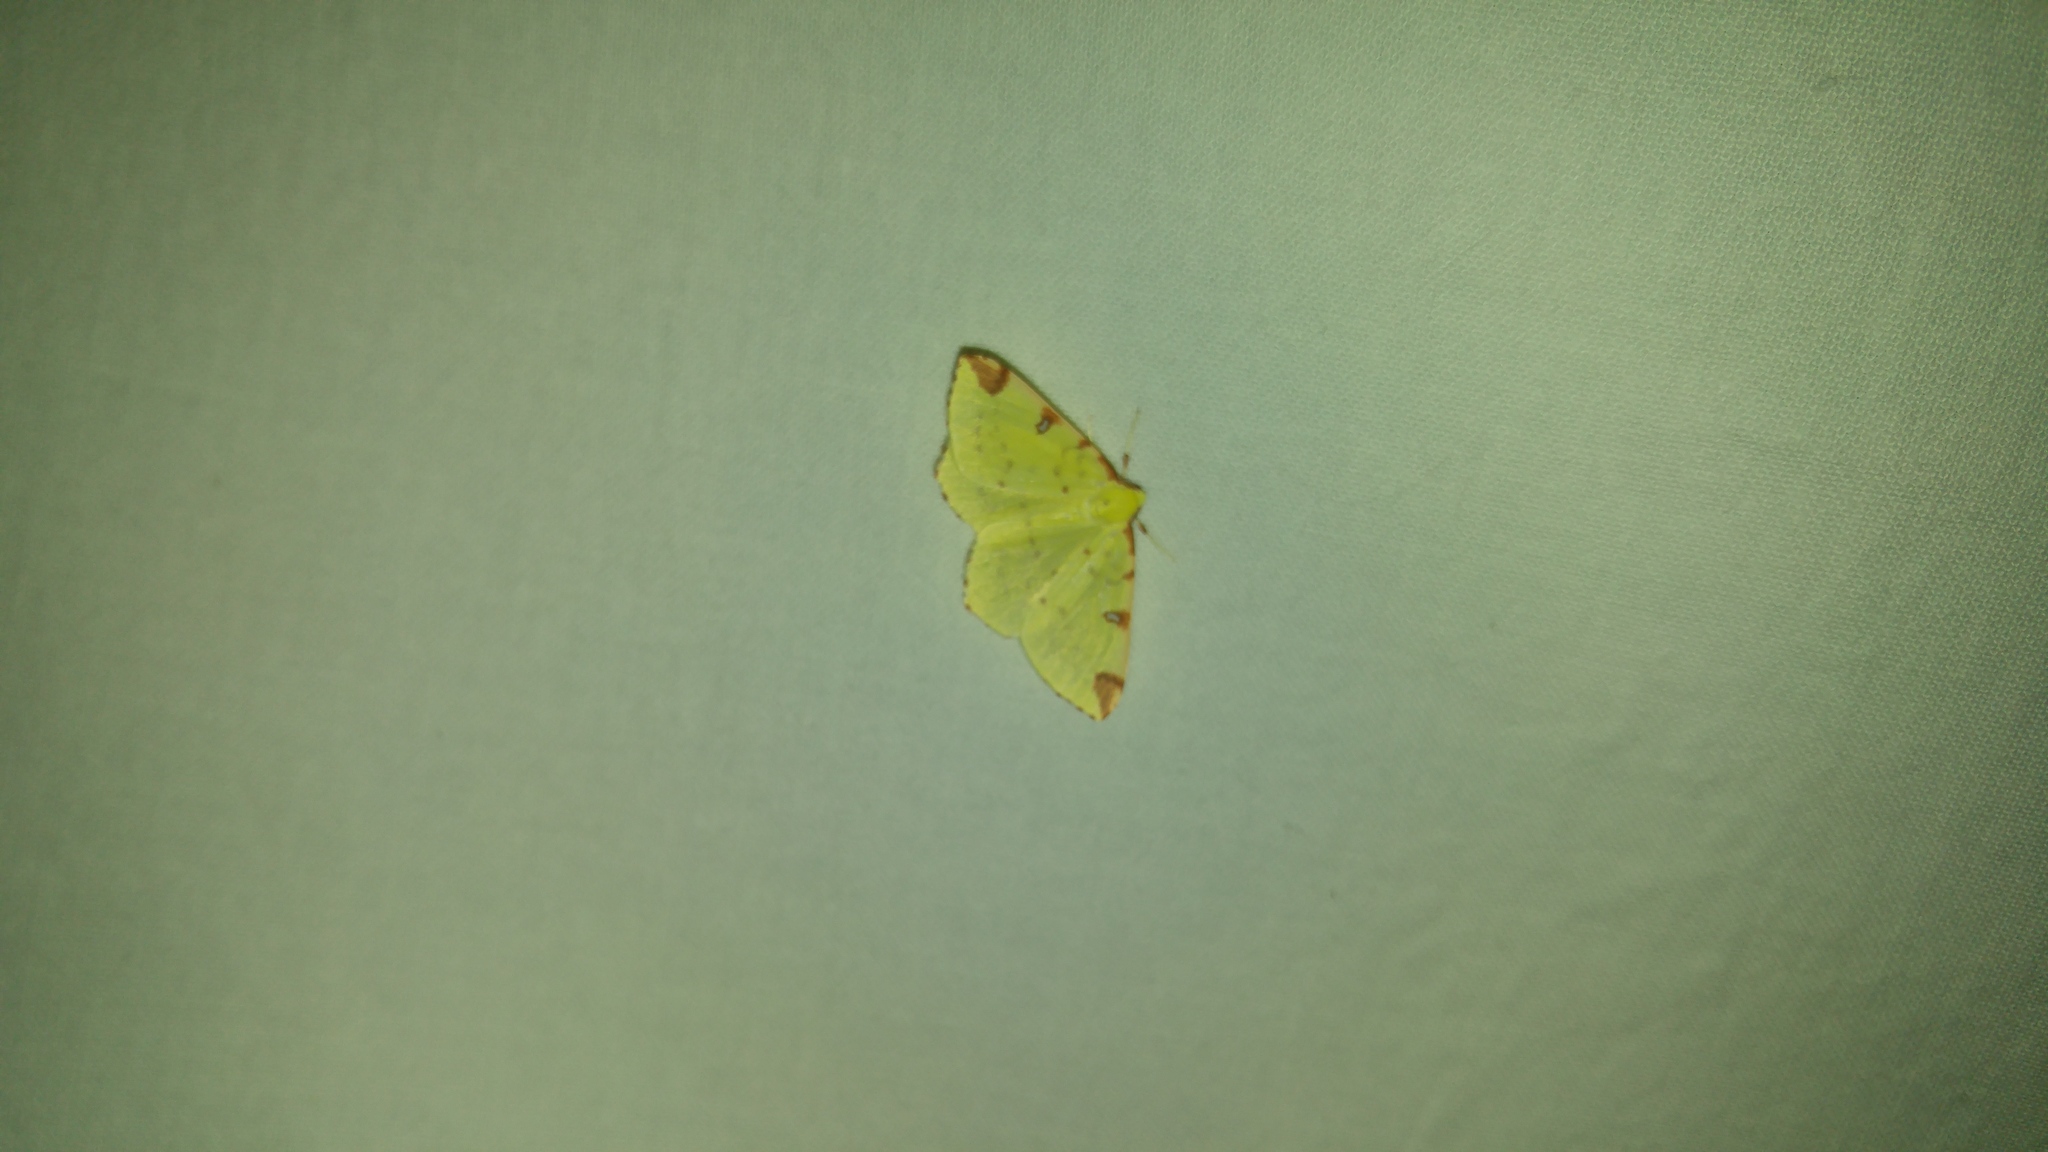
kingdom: Animalia
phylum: Arthropoda
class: Insecta
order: Lepidoptera
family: Geometridae
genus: Opisthograptis
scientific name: Opisthograptis luteolata
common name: Brimstone moth
